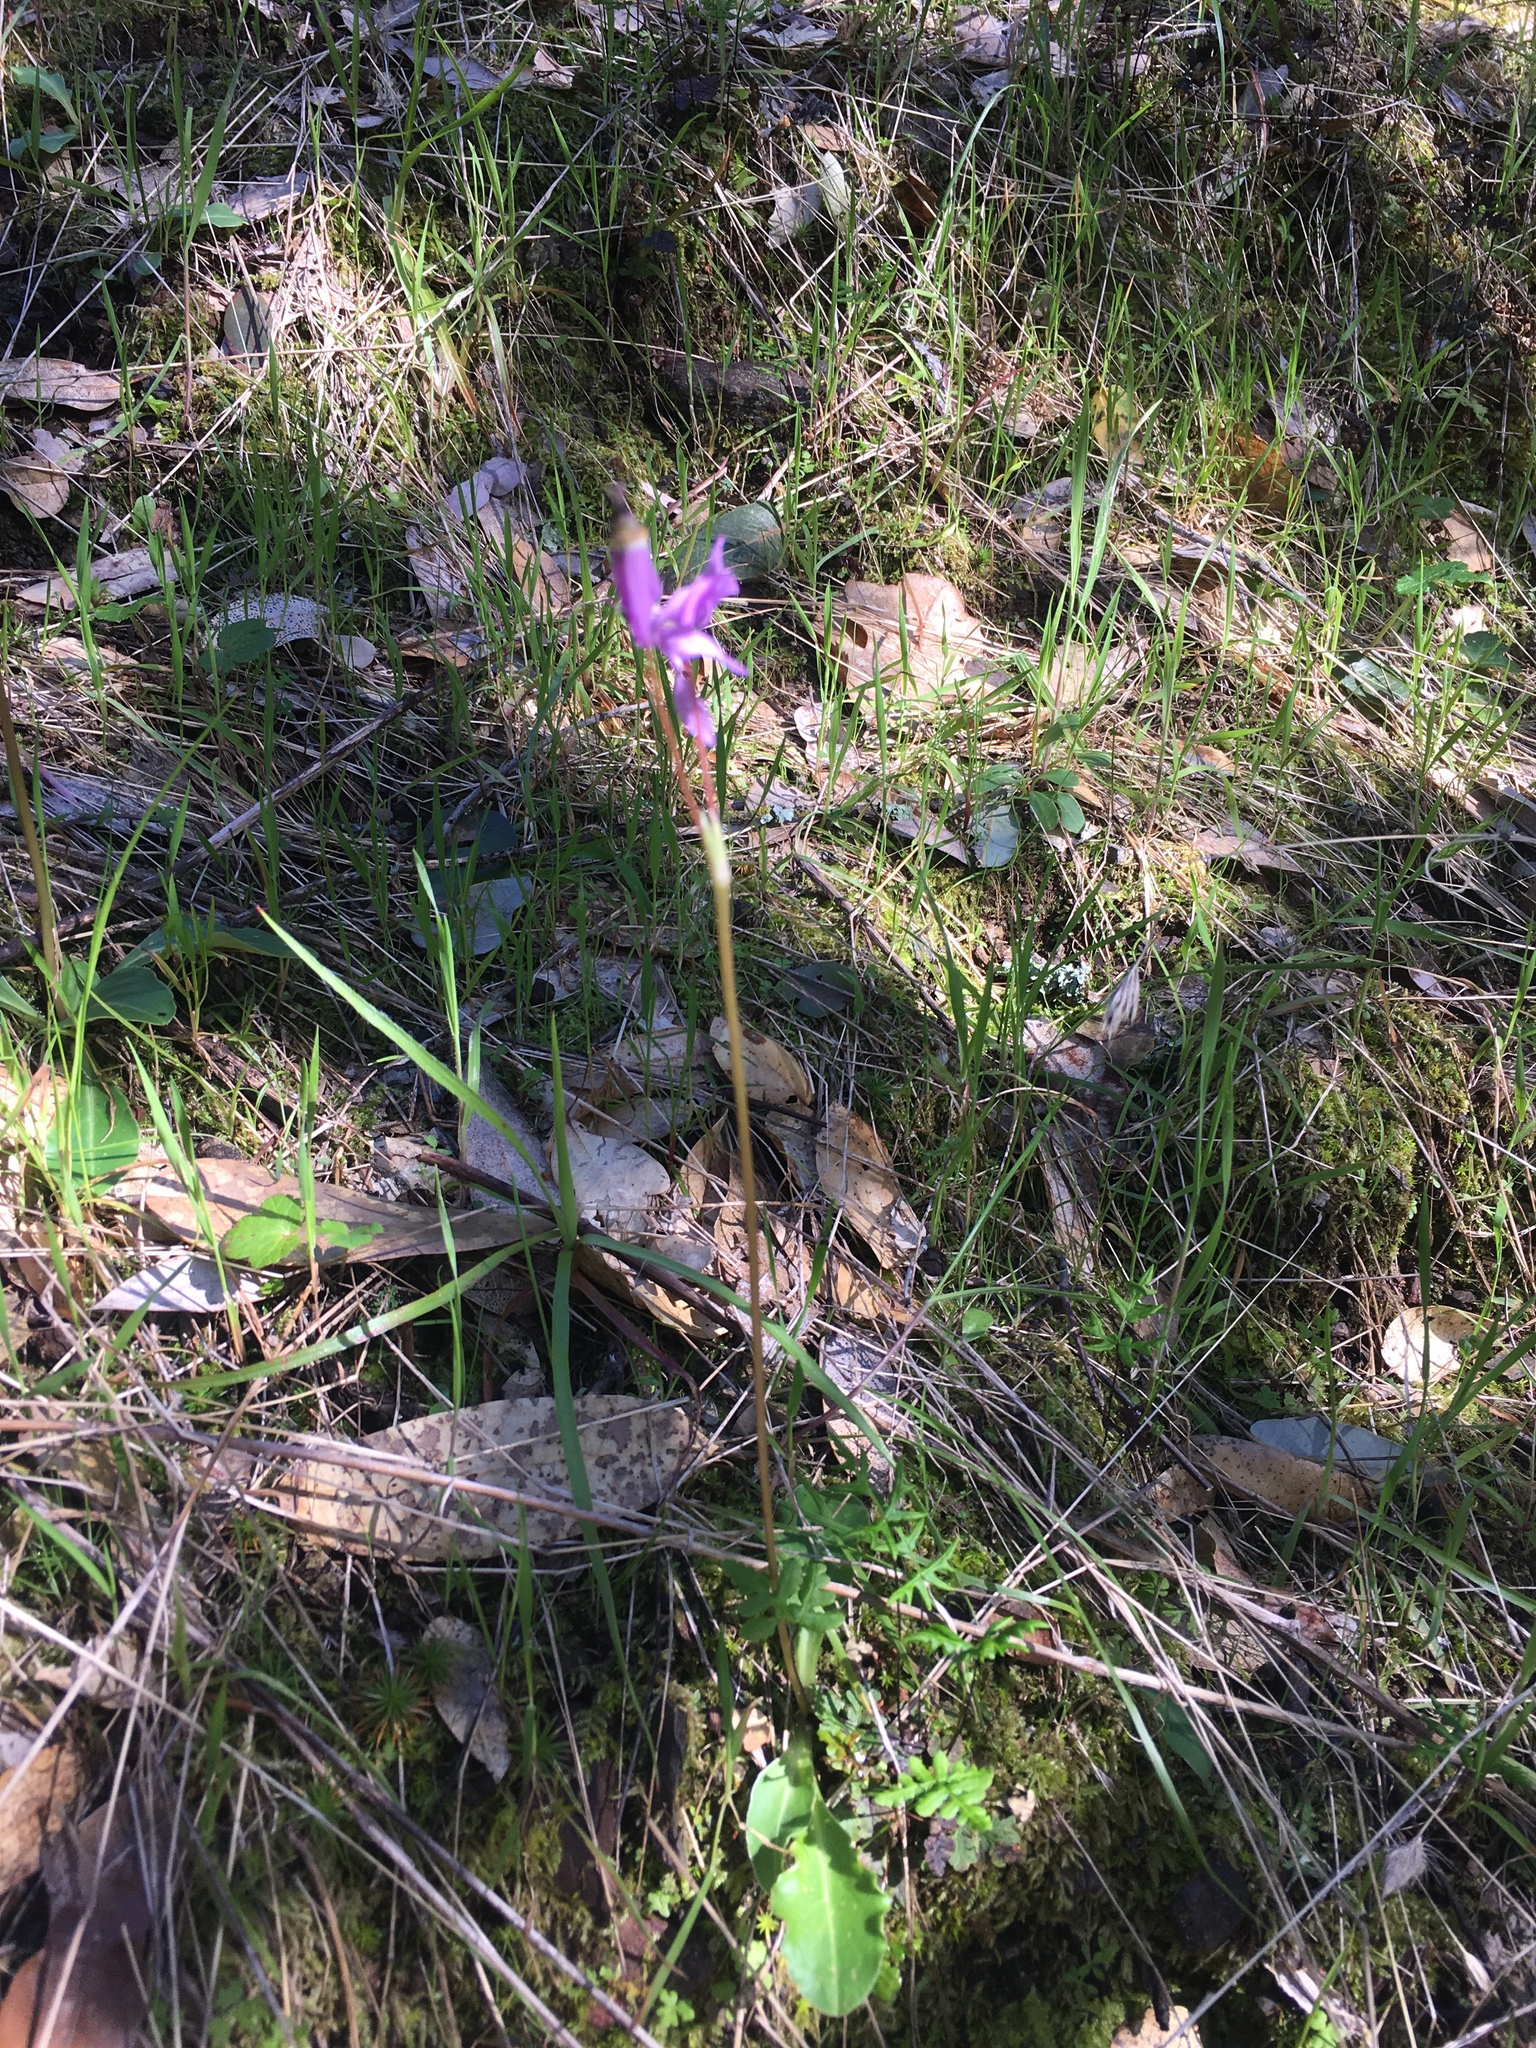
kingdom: Plantae
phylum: Tracheophyta
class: Magnoliopsida
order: Ericales
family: Primulaceae
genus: Dodecatheon
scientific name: Dodecatheon hendersonii
